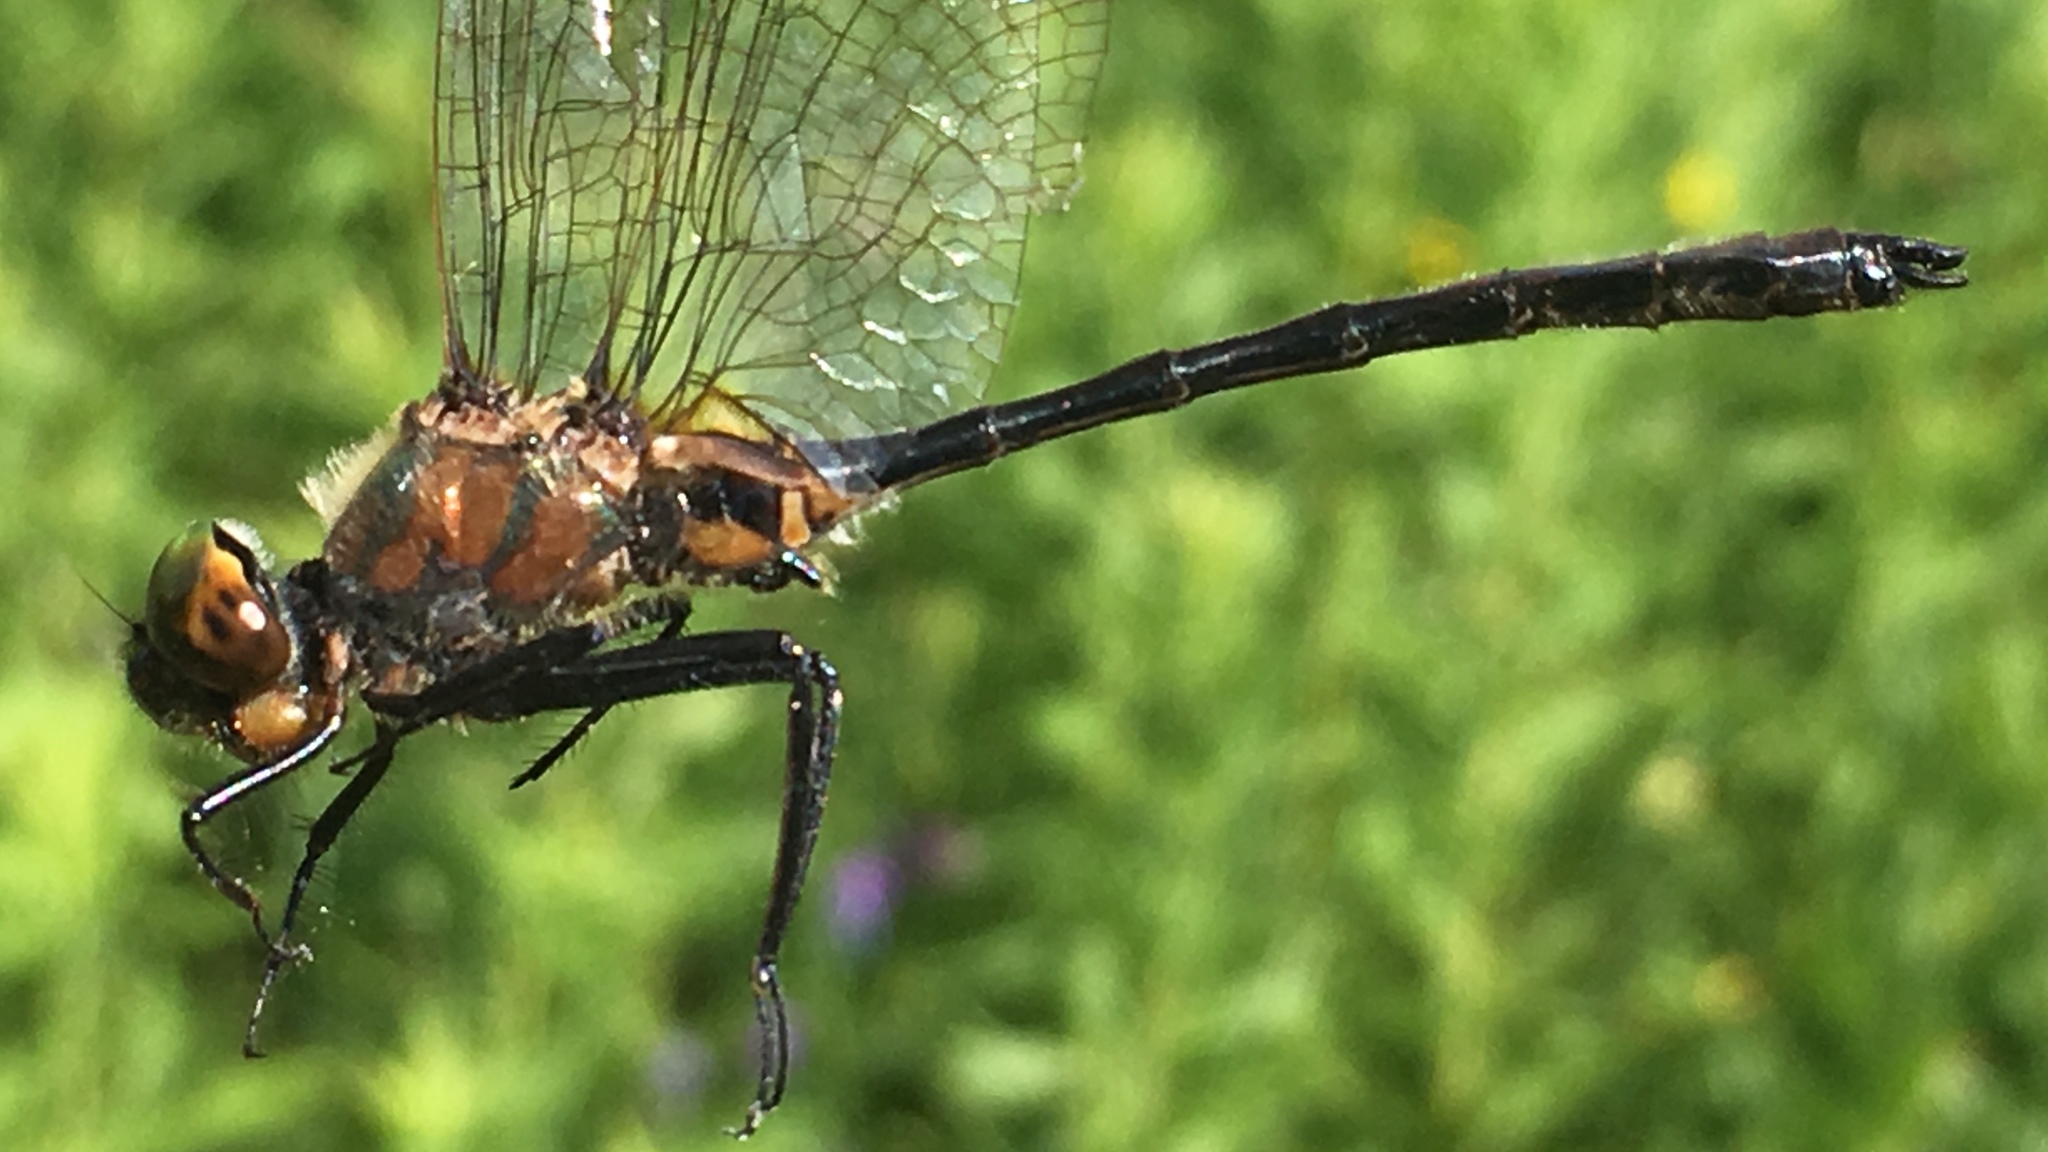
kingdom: Animalia
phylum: Arthropoda
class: Insecta
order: Odonata
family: Corduliidae
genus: Dorocordulia
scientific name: Dorocordulia libera
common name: Racket-tailed emerald
